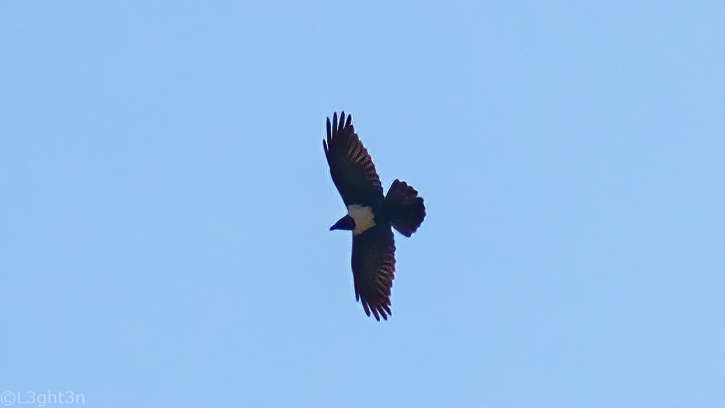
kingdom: Animalia
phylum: Chordata
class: Aves
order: Passeriformes
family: Corvidae
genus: Corvus
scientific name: Corvus albus
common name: Pied crow
